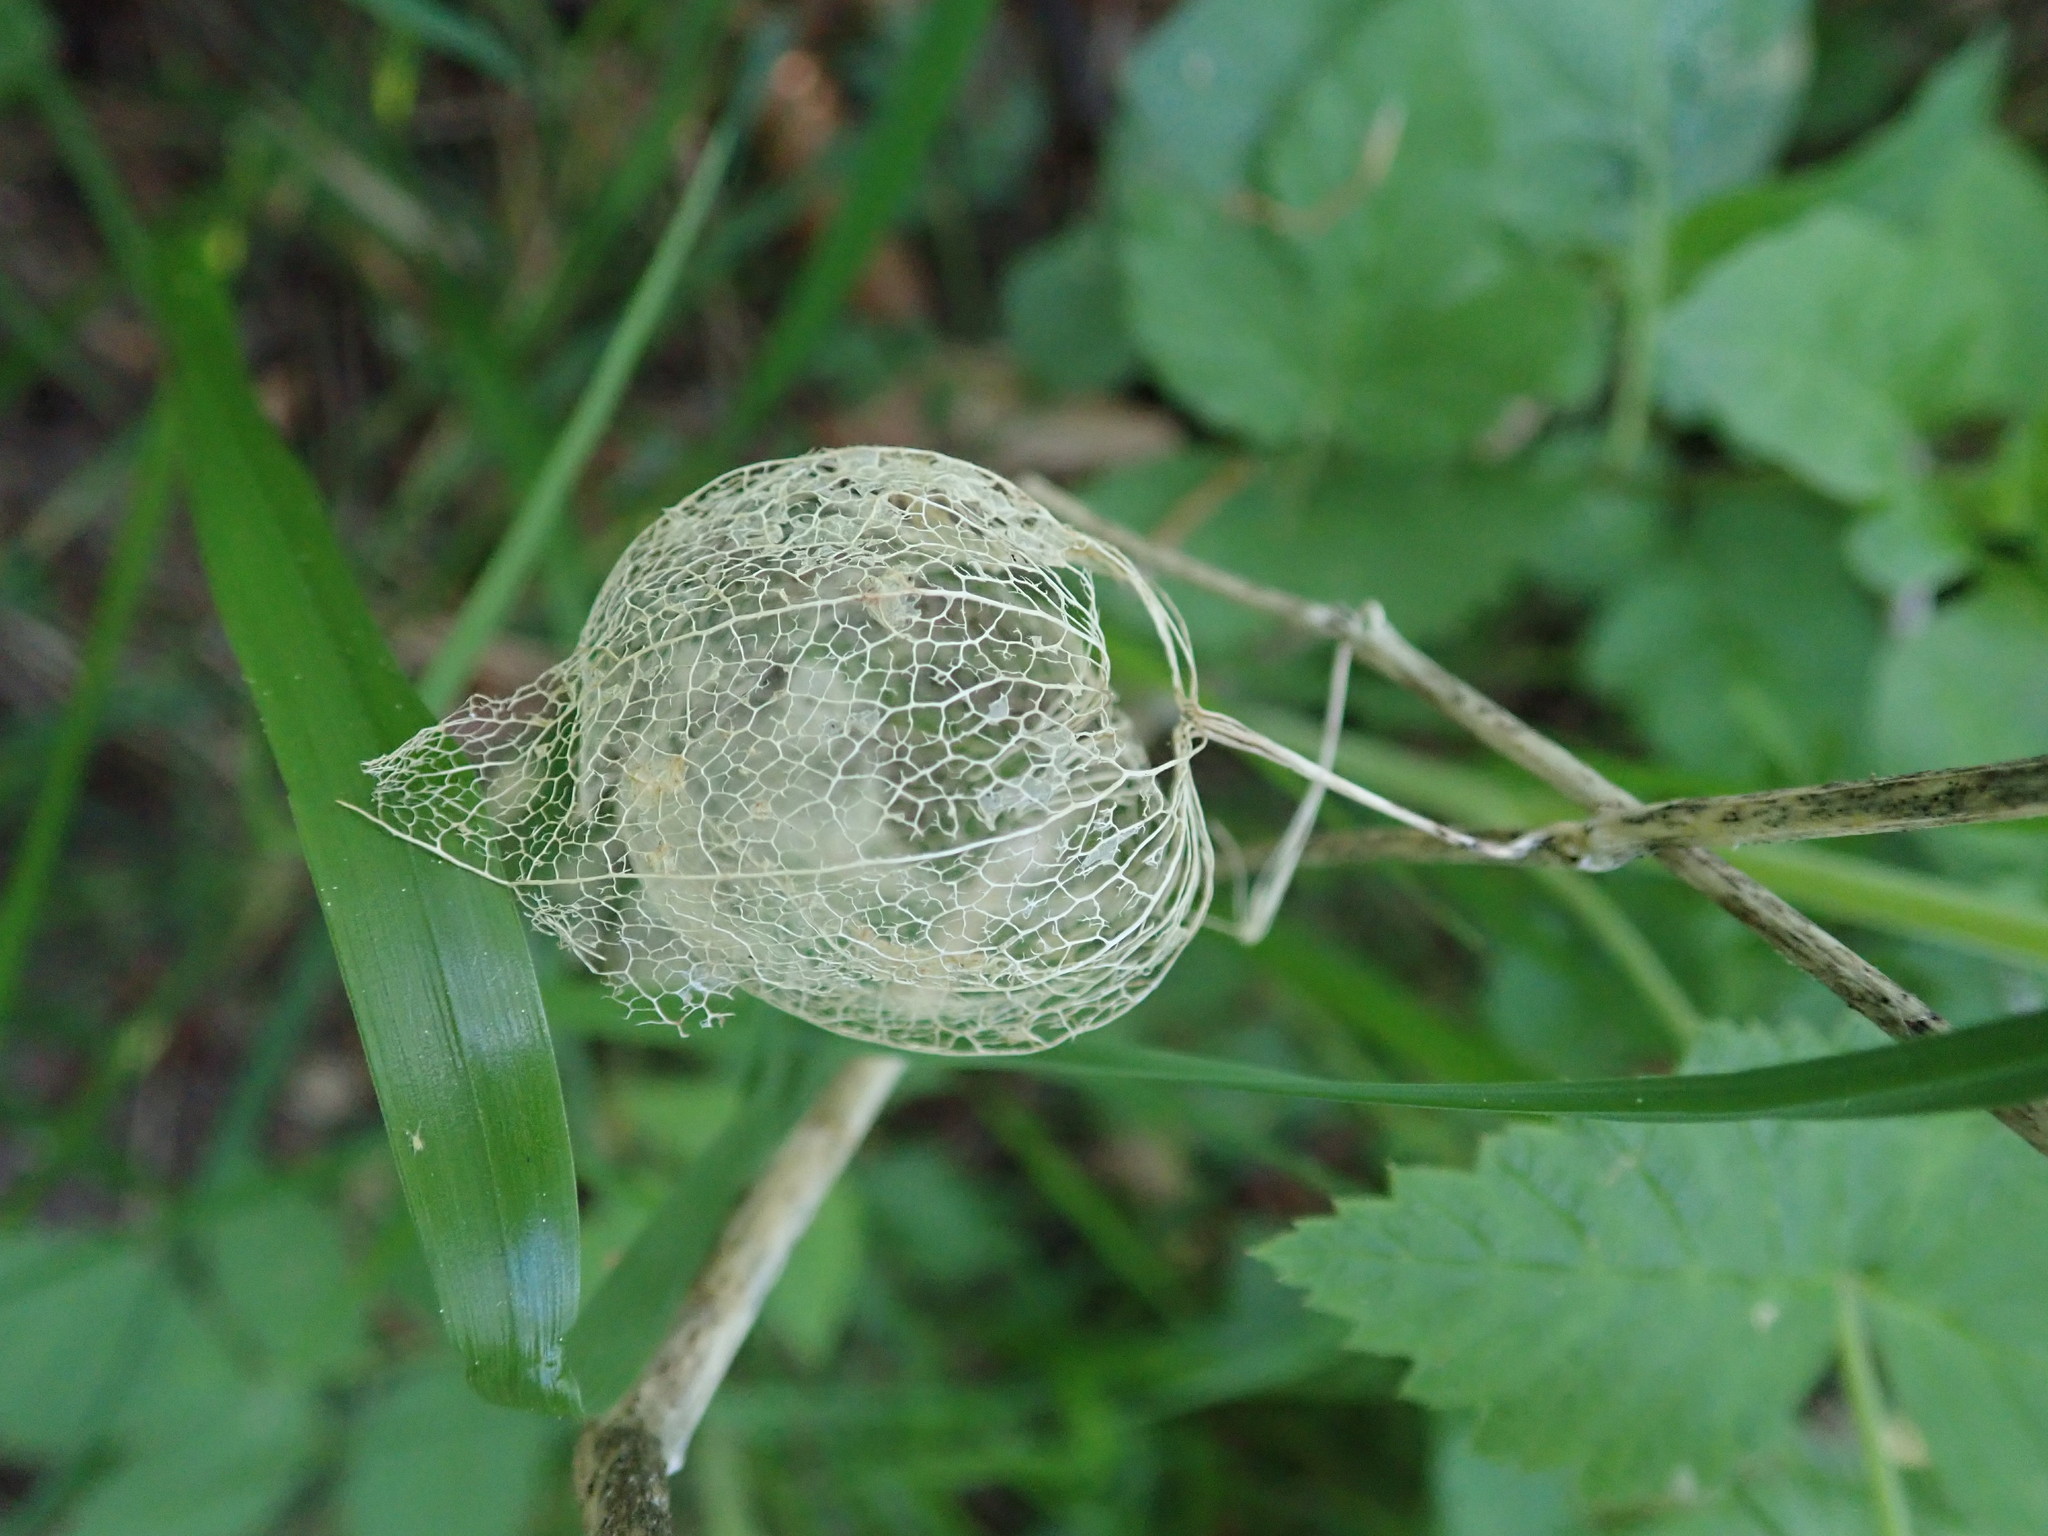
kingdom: Plantae
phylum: Tracheophyta
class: Magnoliopsida
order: Solanales
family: Solanaceae
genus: Alkekengi
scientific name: Alkekengi officinarum
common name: Japanese-lantern
